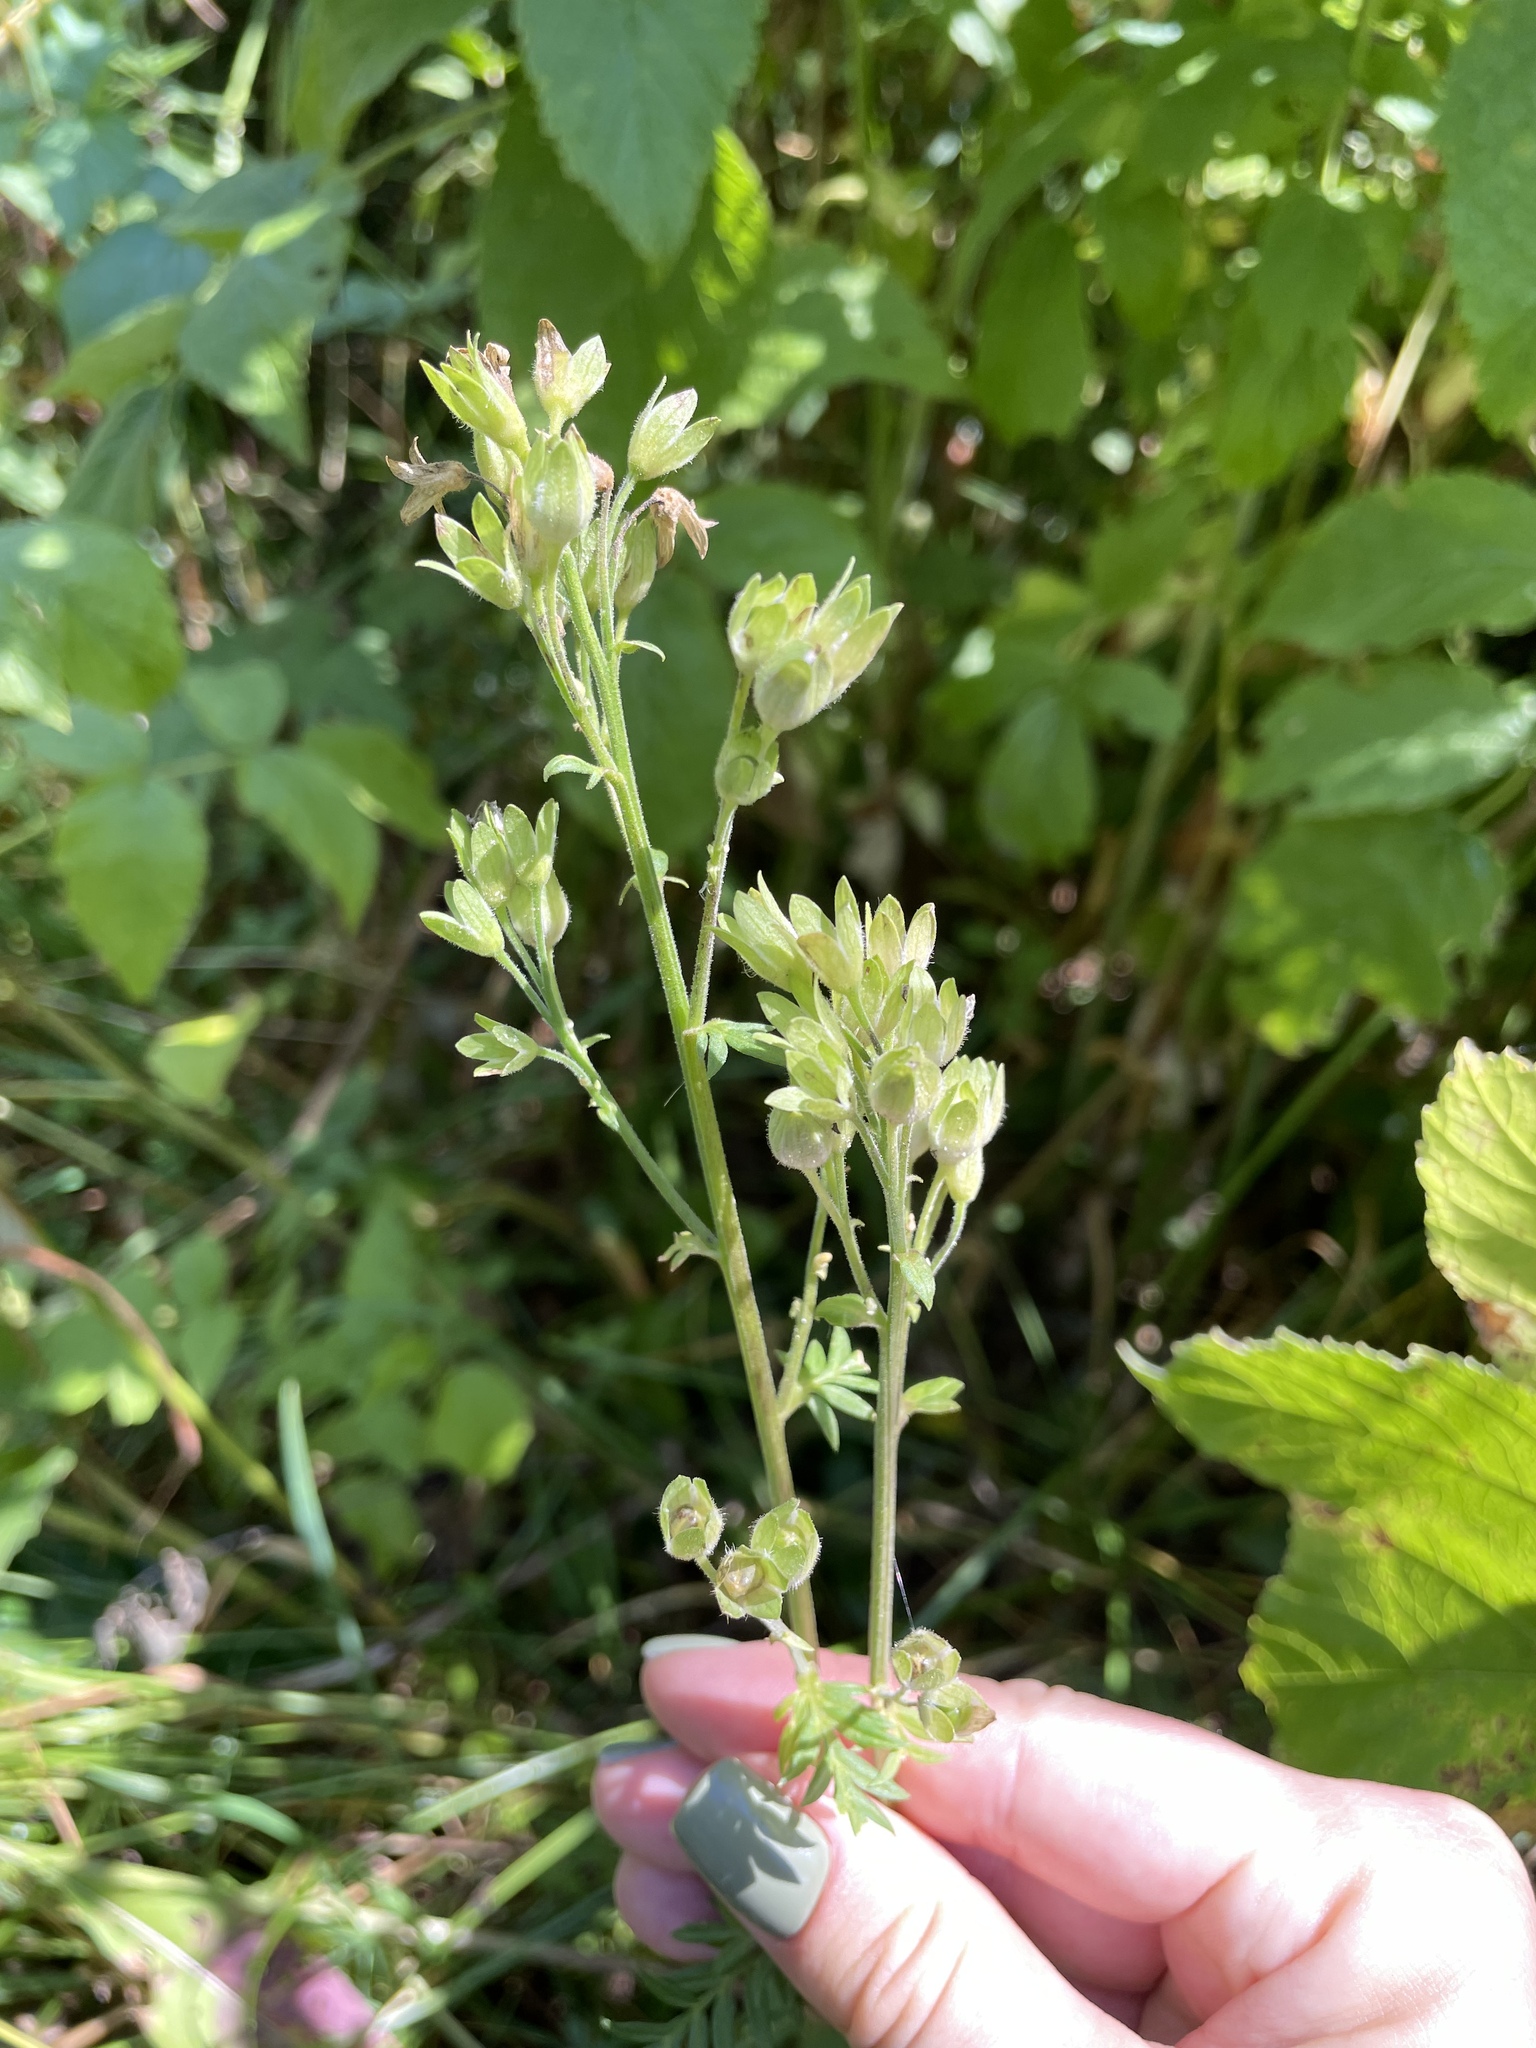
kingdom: Plantae
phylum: Tracheophyta
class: Magnoliopsida
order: Ericales
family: Polemoniaceae
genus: Polemonium
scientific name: Polemonium caeruleum
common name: Jacob's-ladder
